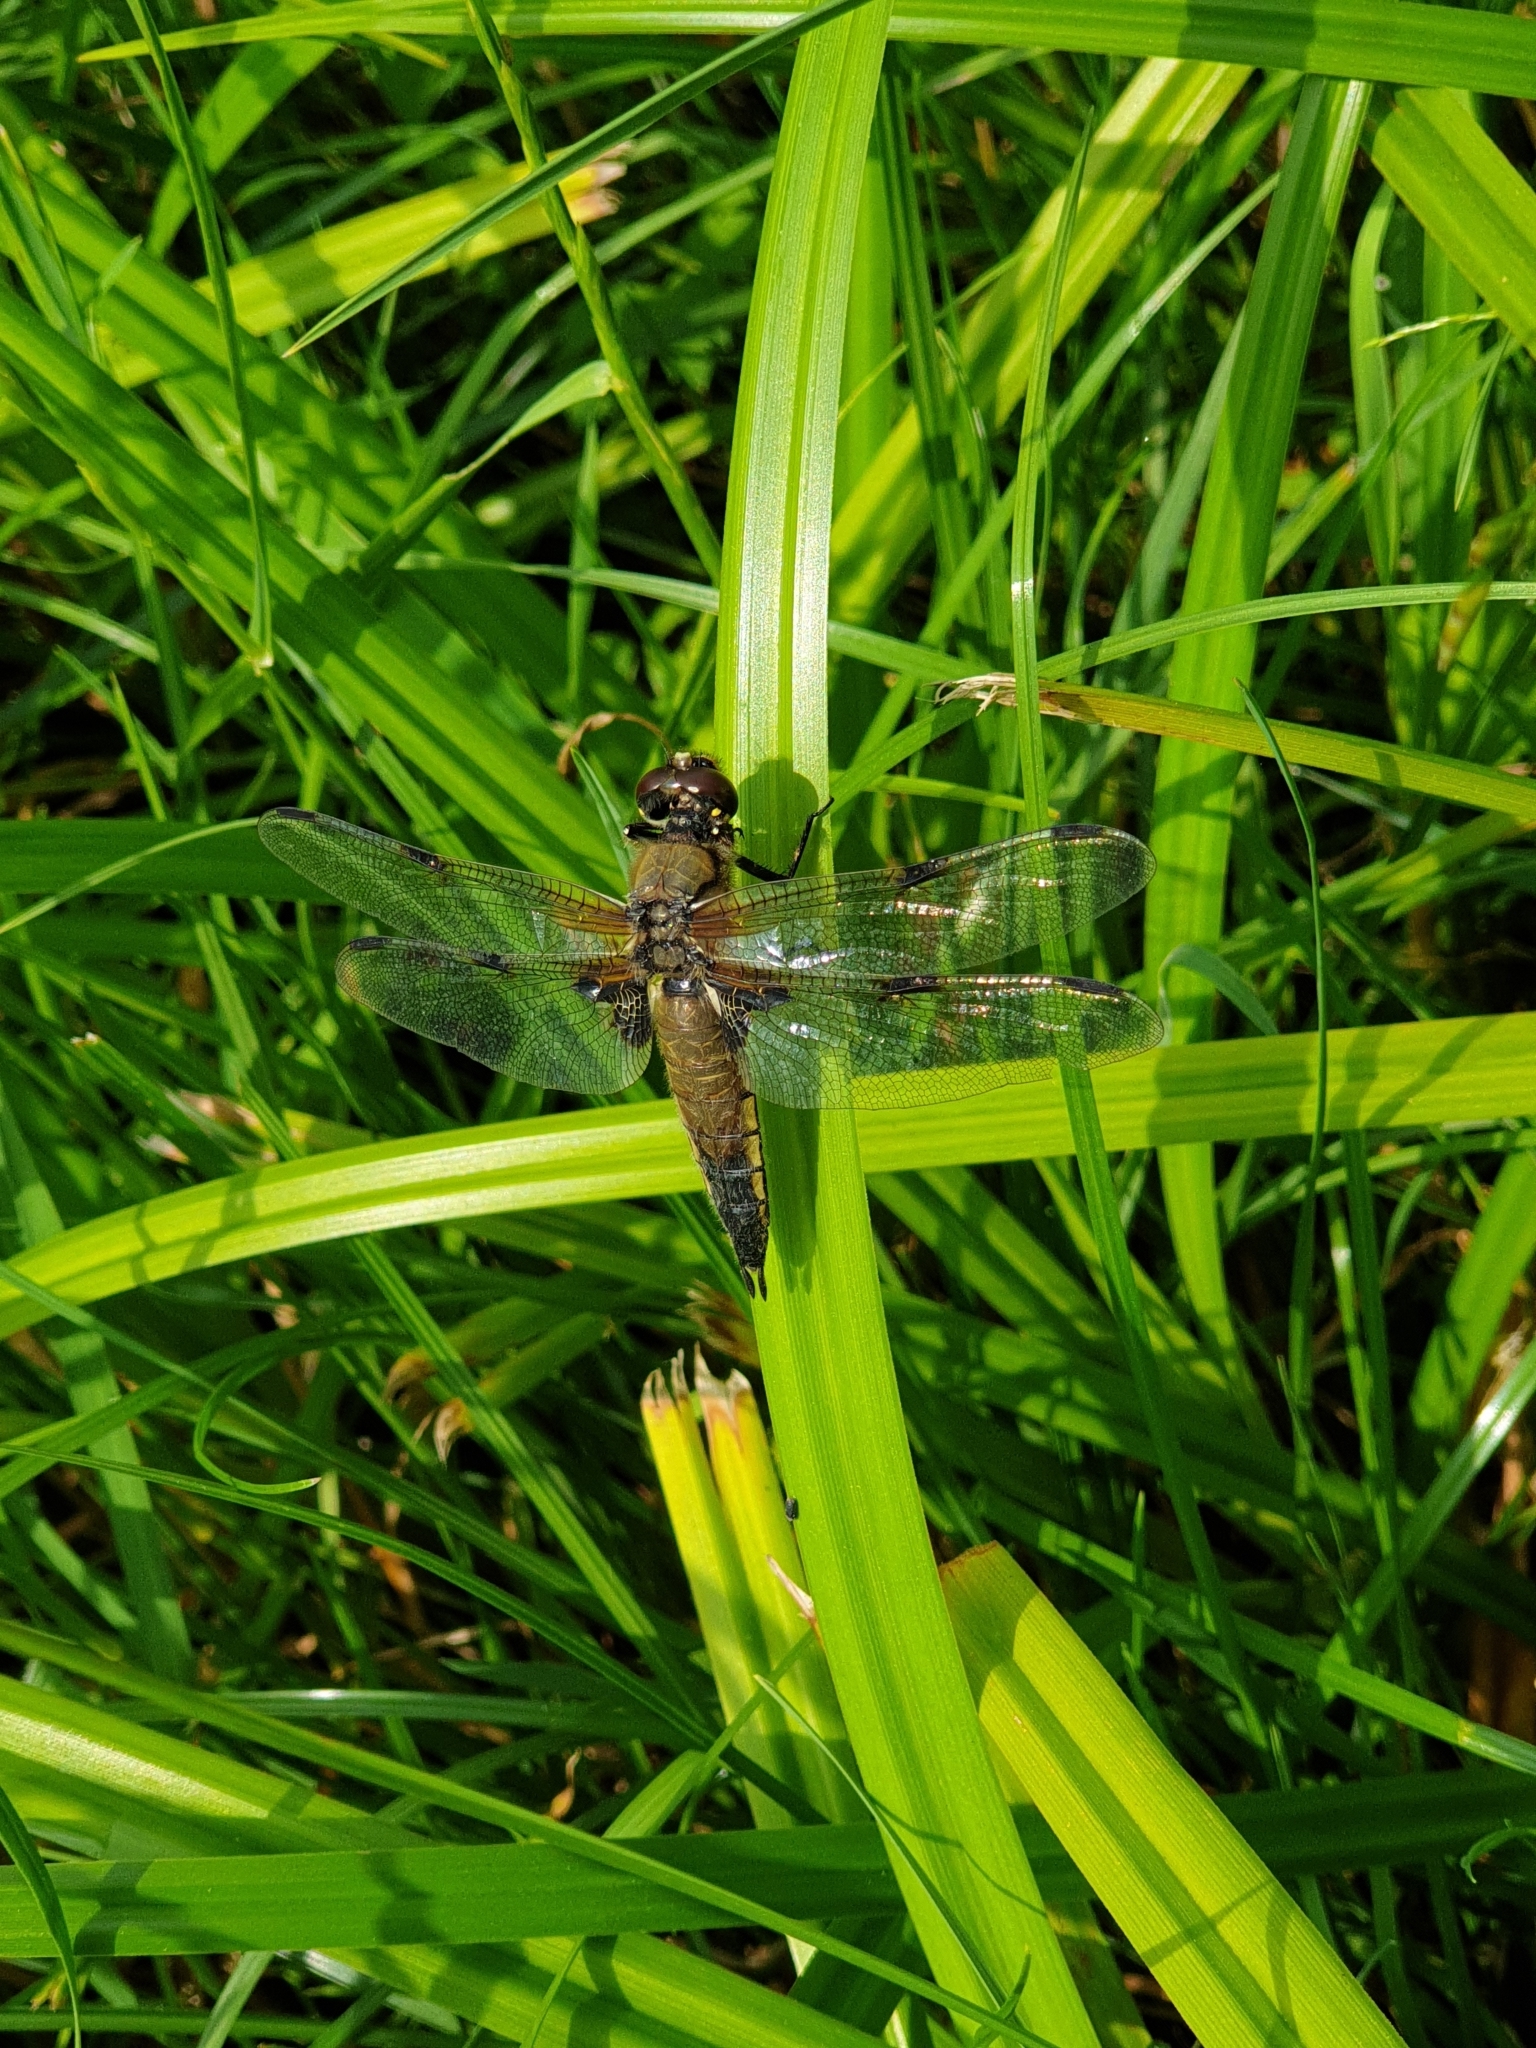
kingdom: Animalia
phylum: Arthropoda
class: Insecta
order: Odonata
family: Libellulidae
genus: Libellula
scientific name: Libellula quadrimaculata
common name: Four-spotted chaser
